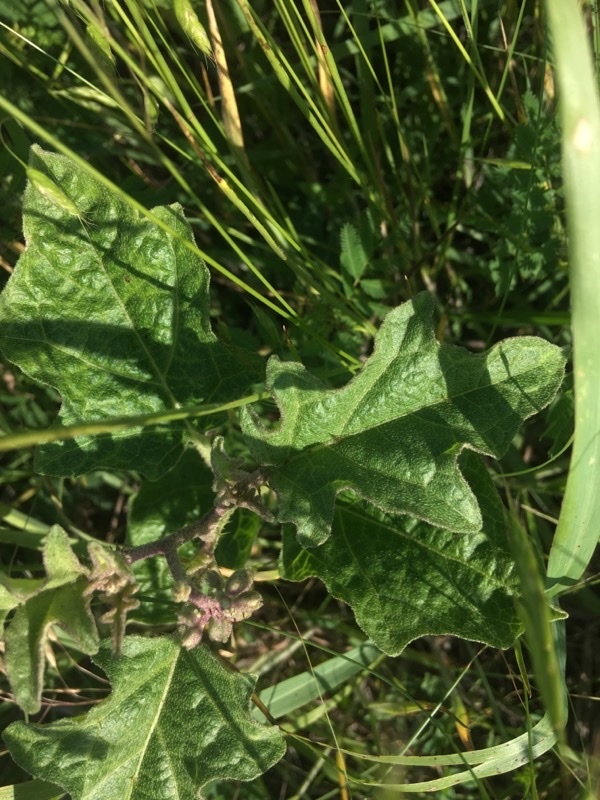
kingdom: Plantae
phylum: Tracheophyta
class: Magnoliopsida
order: Solanales
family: Solanaceae
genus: Solanum
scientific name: Solanum dimidiatum
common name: Carolina horse-nettle
